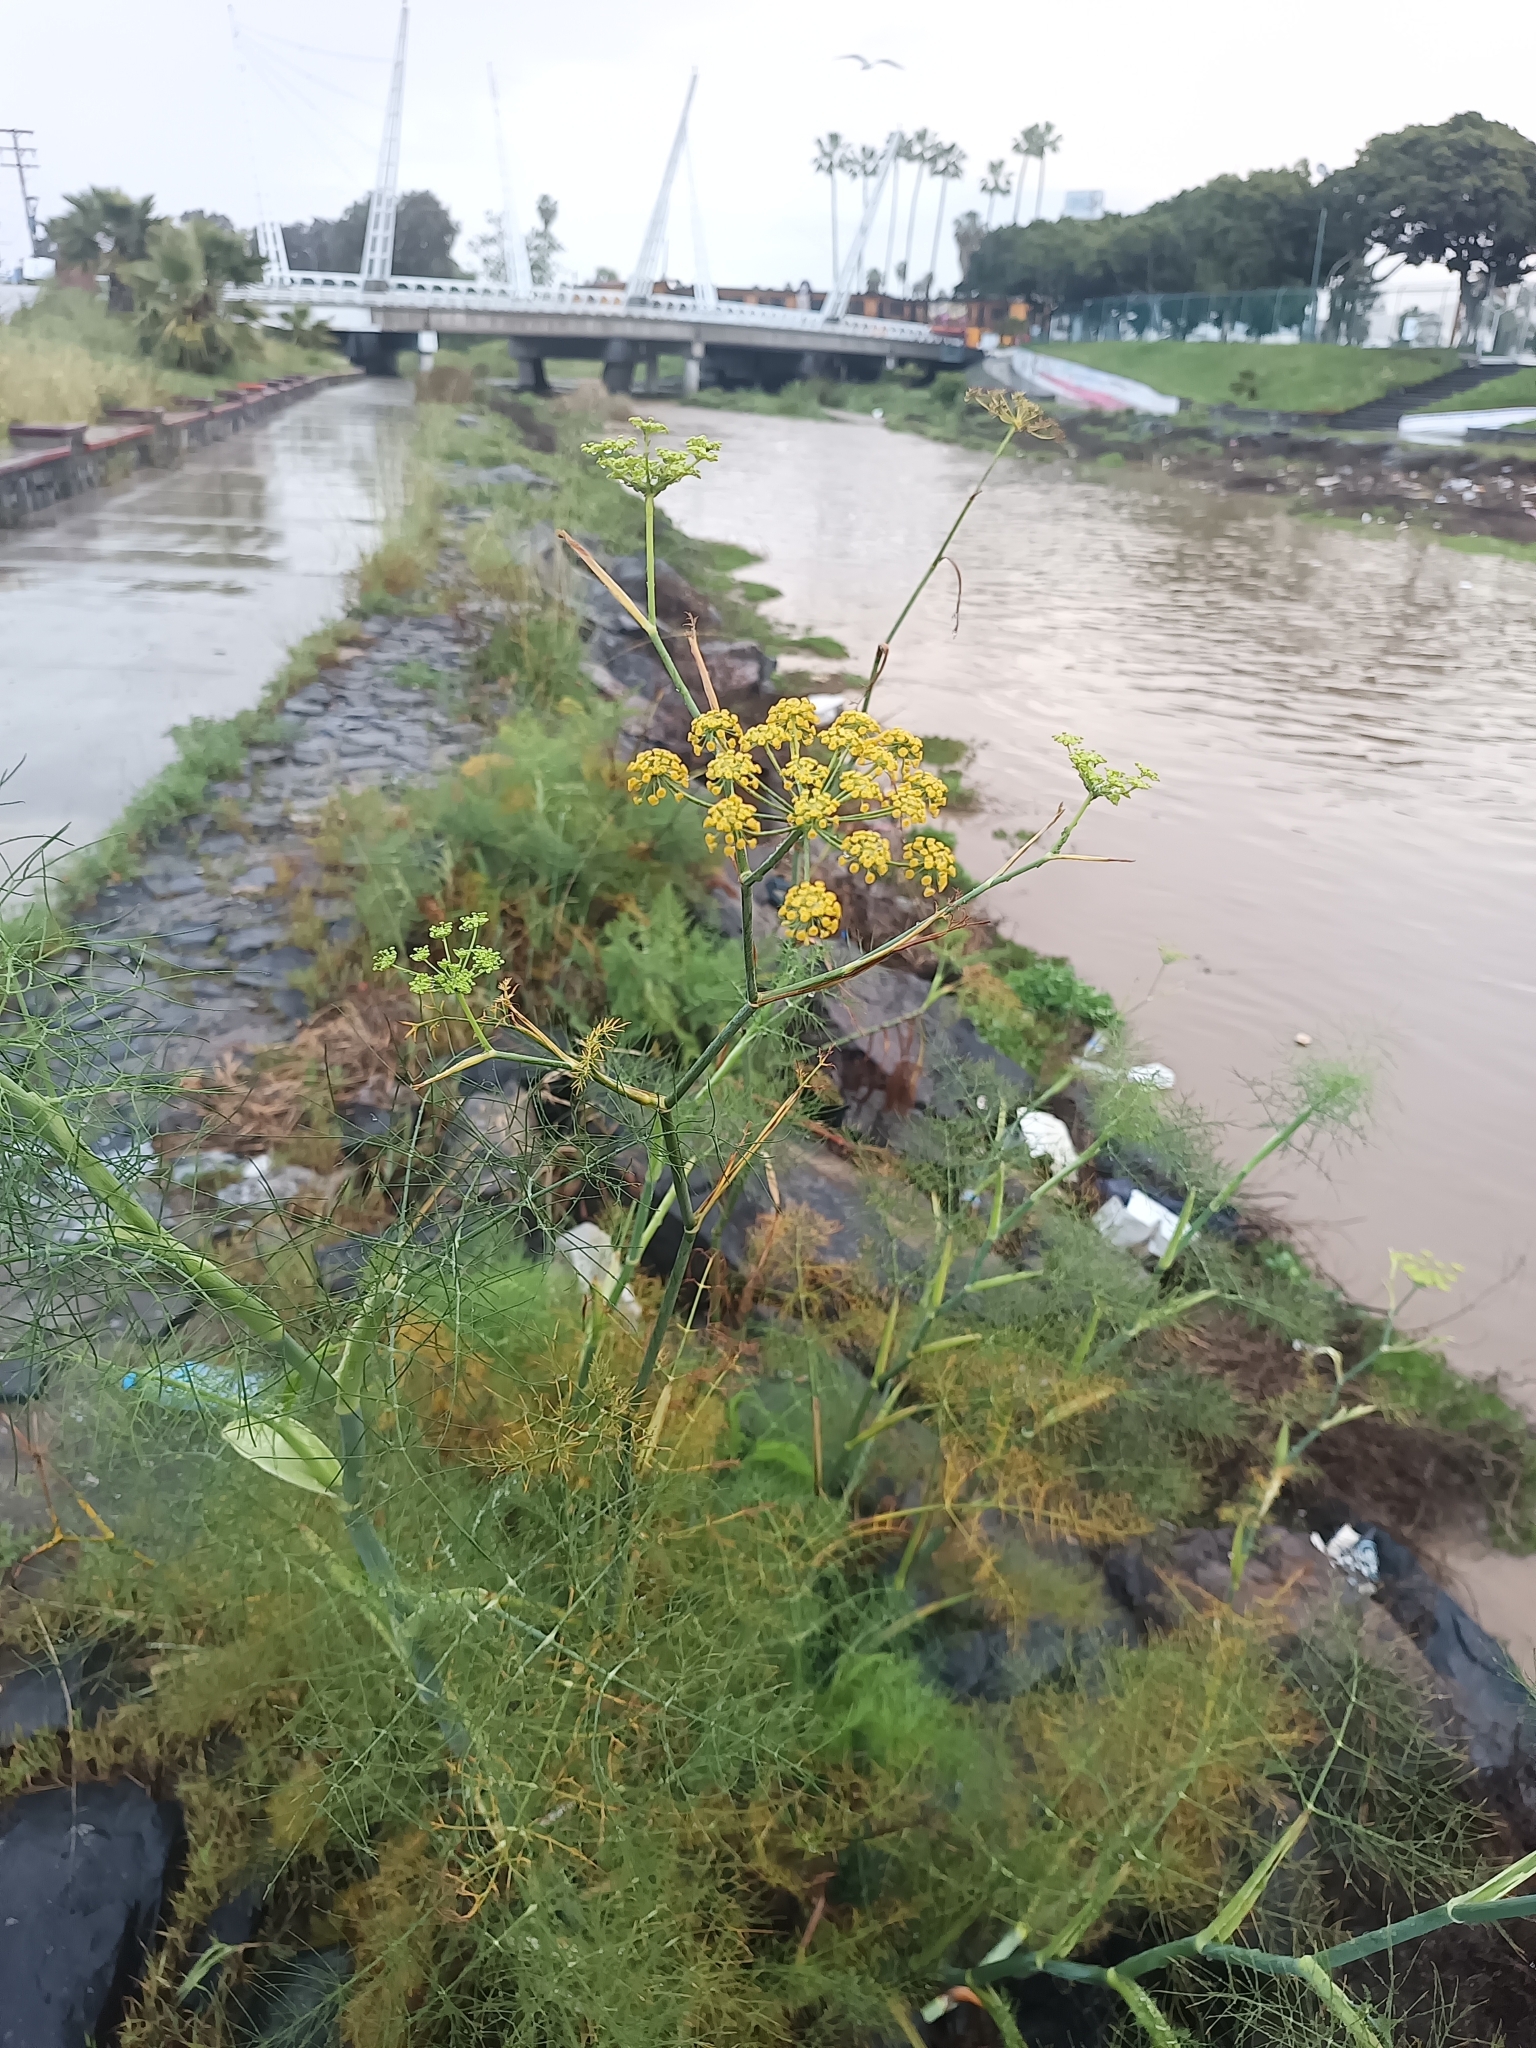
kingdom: Plantae
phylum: Tracheophyta
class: Magnoliopsida
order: Apiales
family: Apiaceae
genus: Foeniculum
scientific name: Foeniculum vulgare
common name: Fennel
